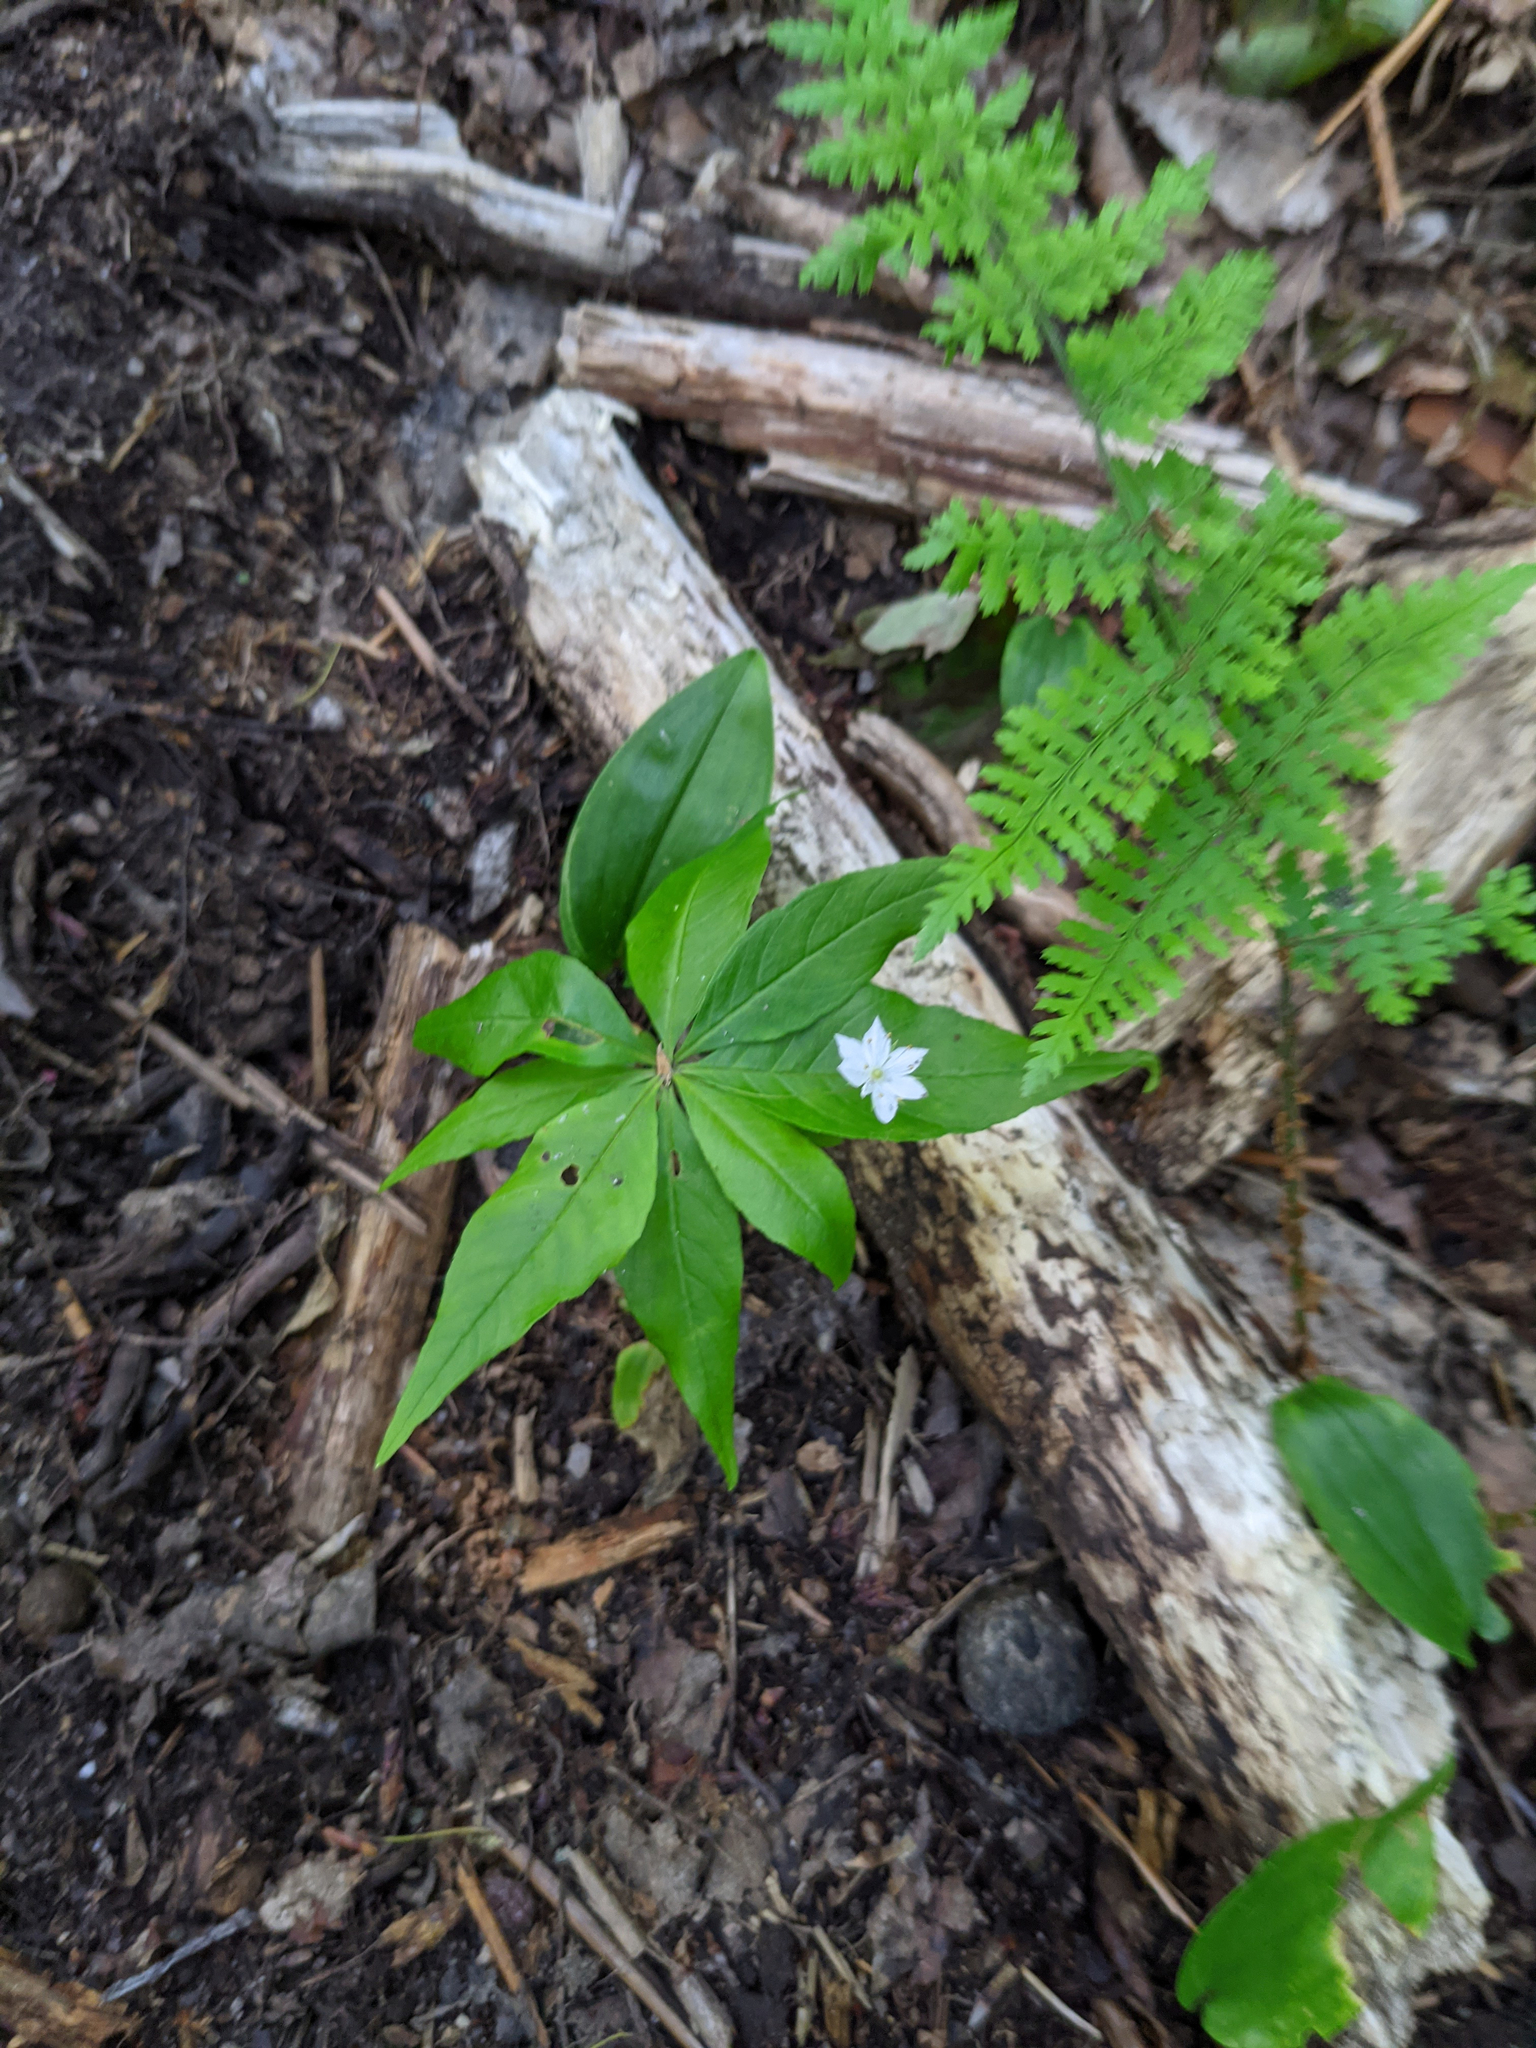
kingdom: Plantae
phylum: Tracheophyta
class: Magnoliopsida
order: Ericales
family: Primulaceae
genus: Lysimachia
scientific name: Lysimachia borealis
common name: American starflower
